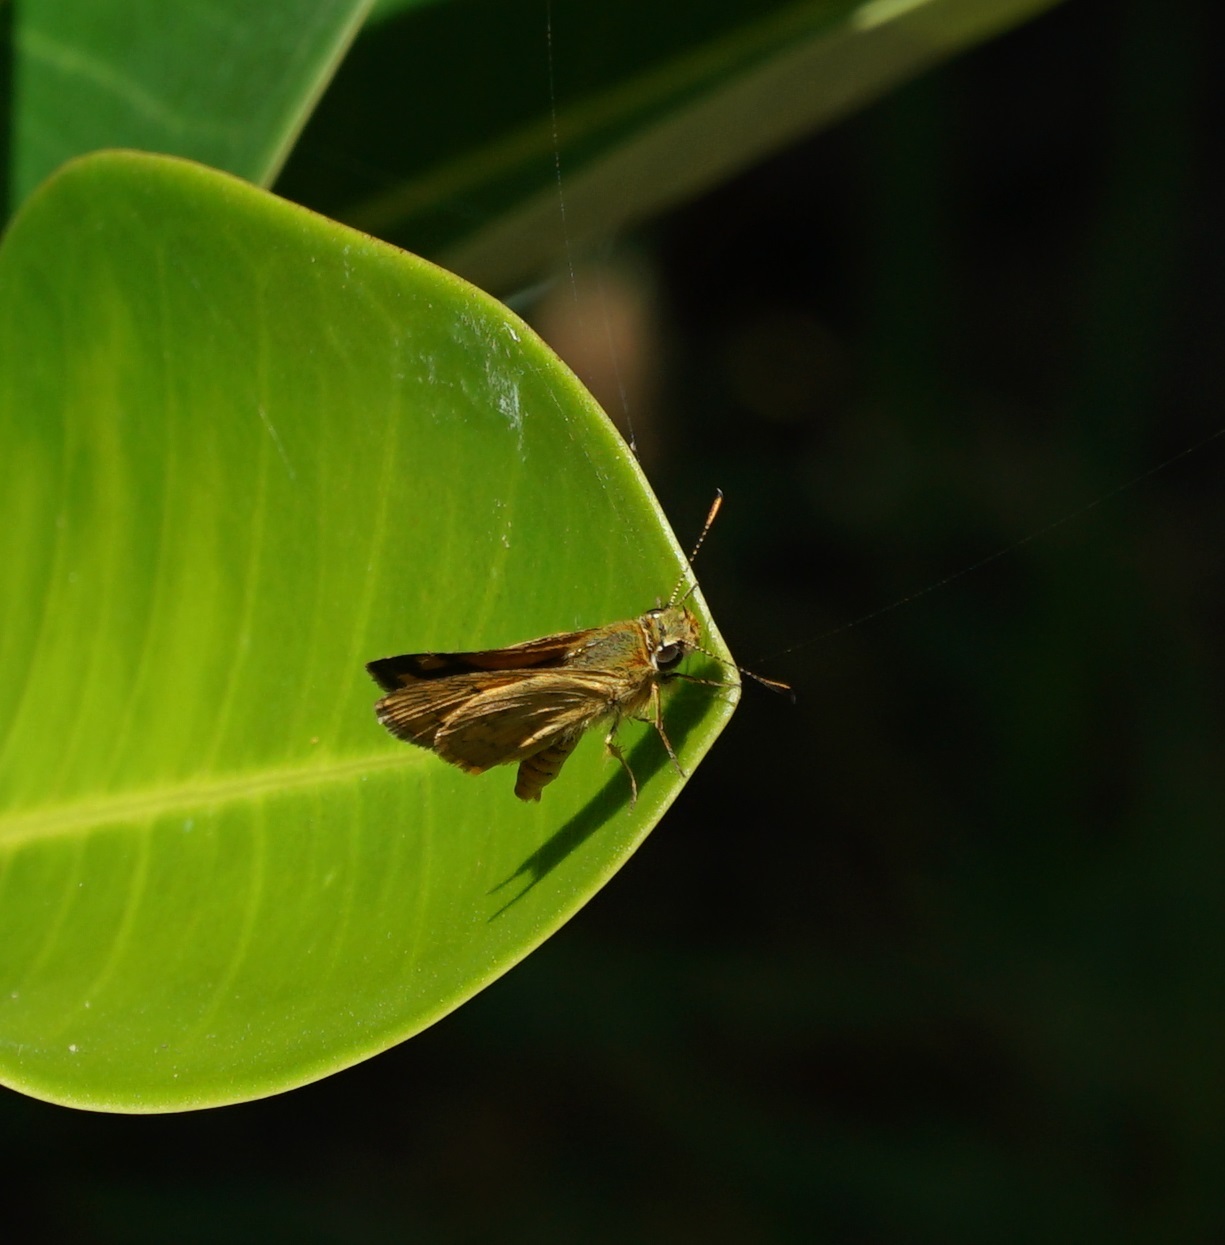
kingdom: Animalia
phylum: Arthropoda
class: Insecta
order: Lepidoptera
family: Hesperiidae
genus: Ocybadistes
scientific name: Ocybadistes walkeri
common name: Yellow-banded dart
